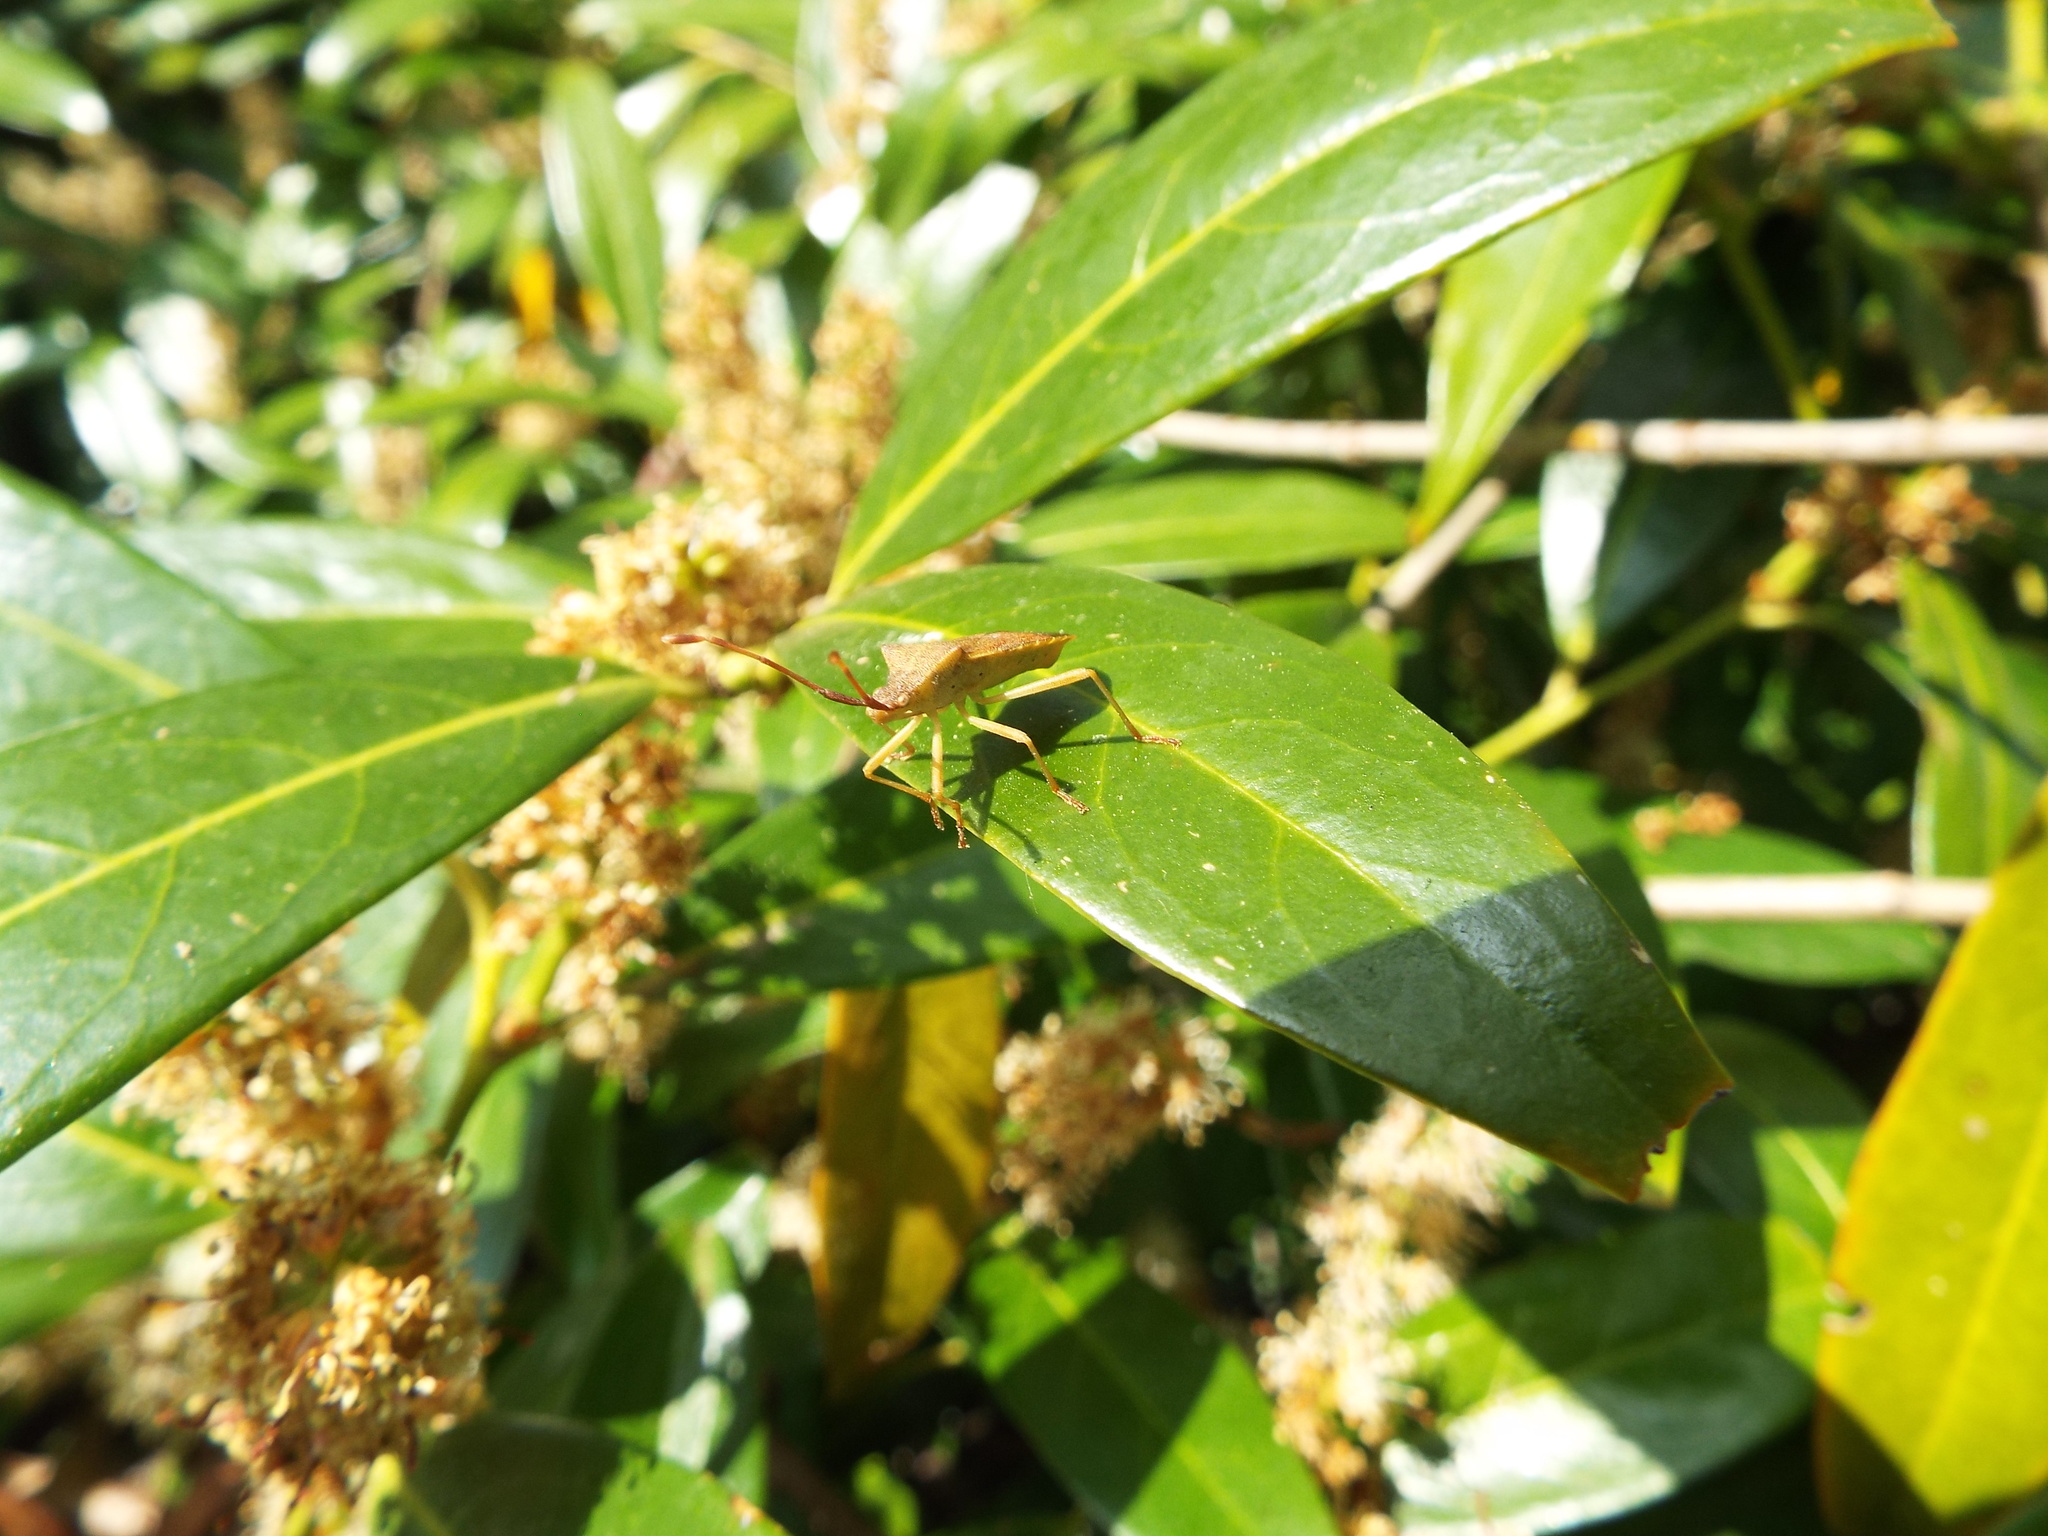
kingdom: Animalia
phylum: Arthropoda
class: Insecta
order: Hemiptera
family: Coreidae
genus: Gonocerus
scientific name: Gonocerus acuteangulatus
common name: Box bug
